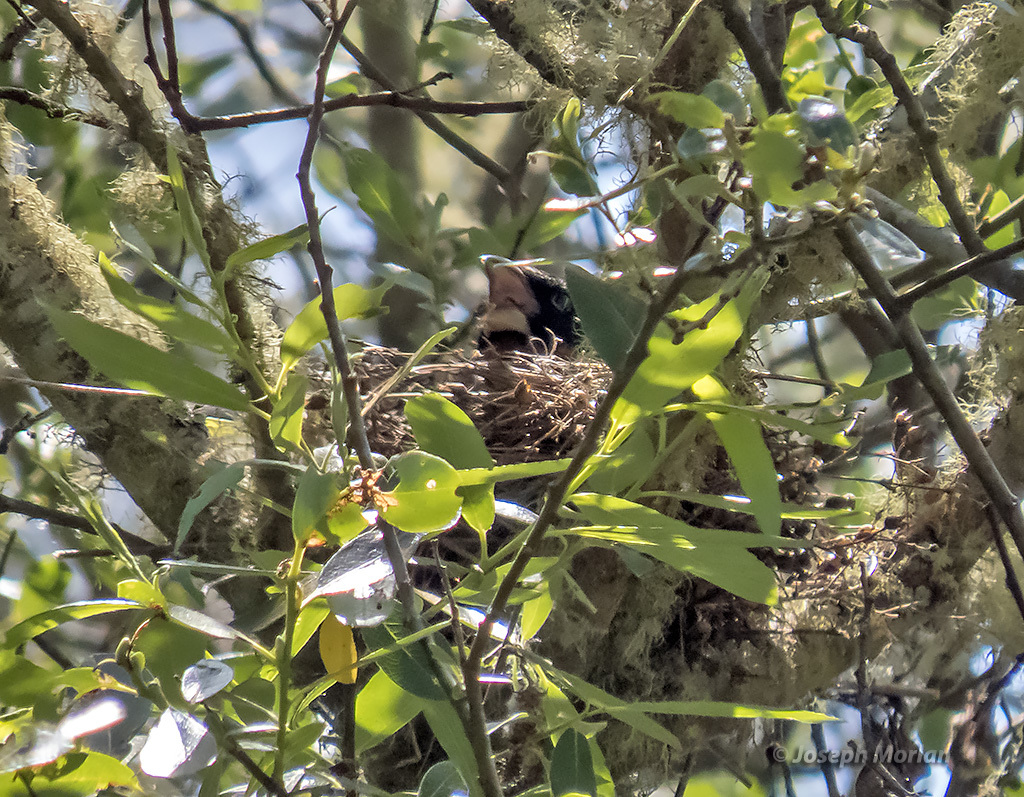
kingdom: Animalia
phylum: Chordata
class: Aves
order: Passeriformes
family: Cardinalidae
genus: Pheucticus
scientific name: Pheucticus melanocephalus
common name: Black-headed grosbeak
